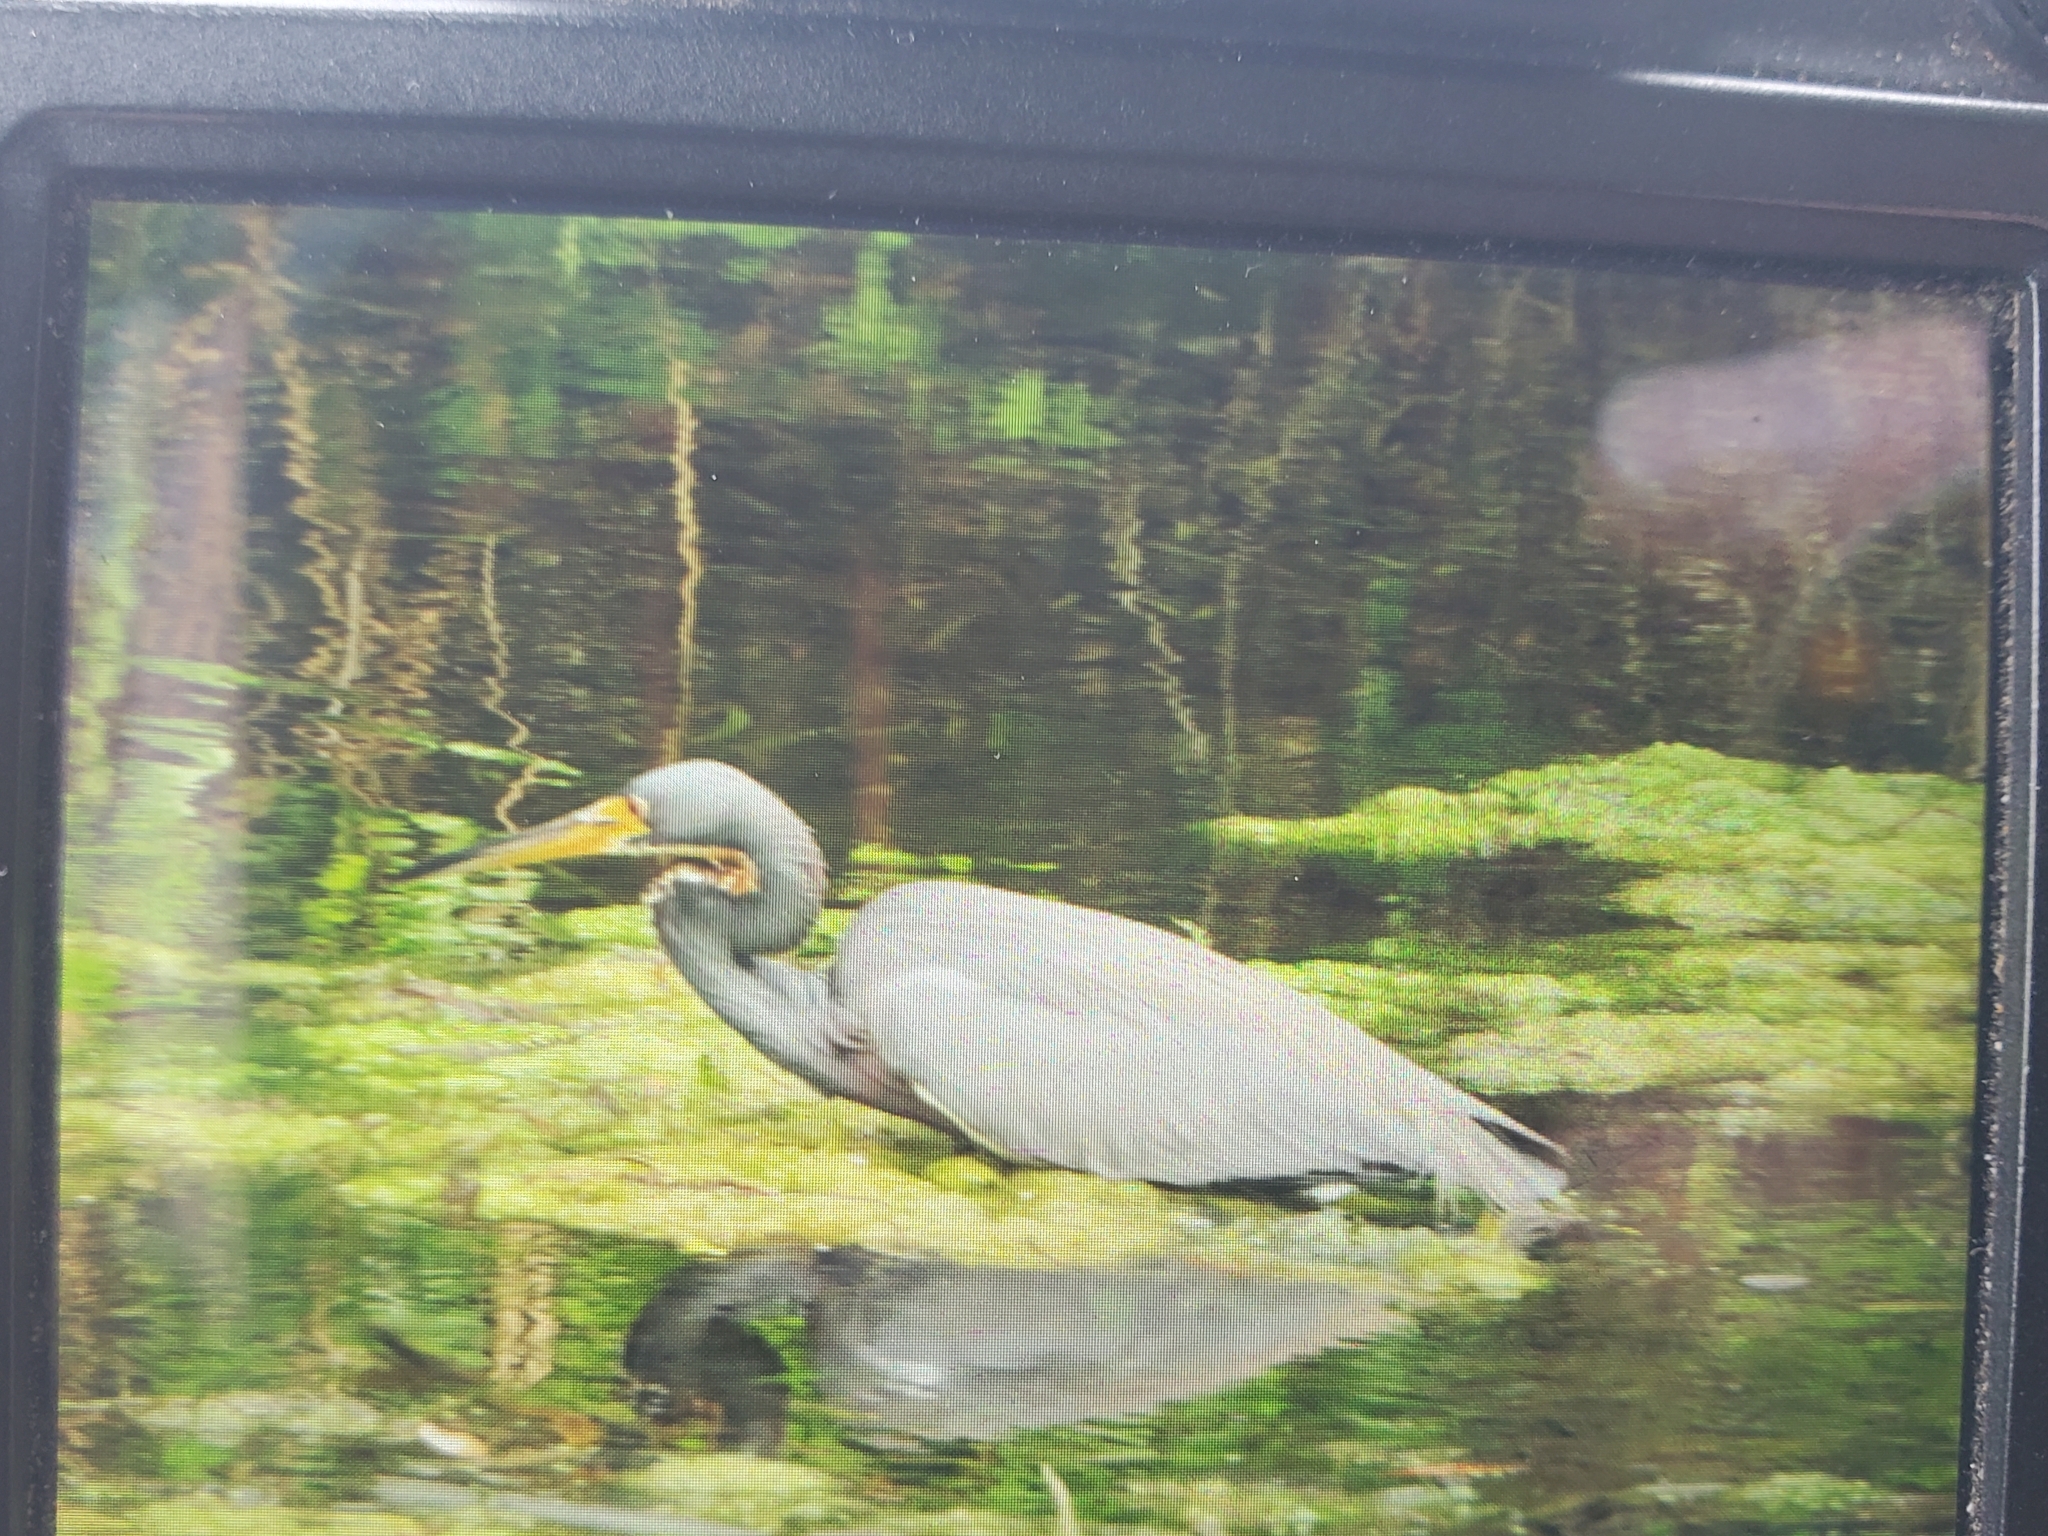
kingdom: Animalia
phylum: Chordata
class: Aves
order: Pelecaniformes
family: Ardeidae
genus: Egretta
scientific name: Egretta tricolor
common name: Tricolored heron
